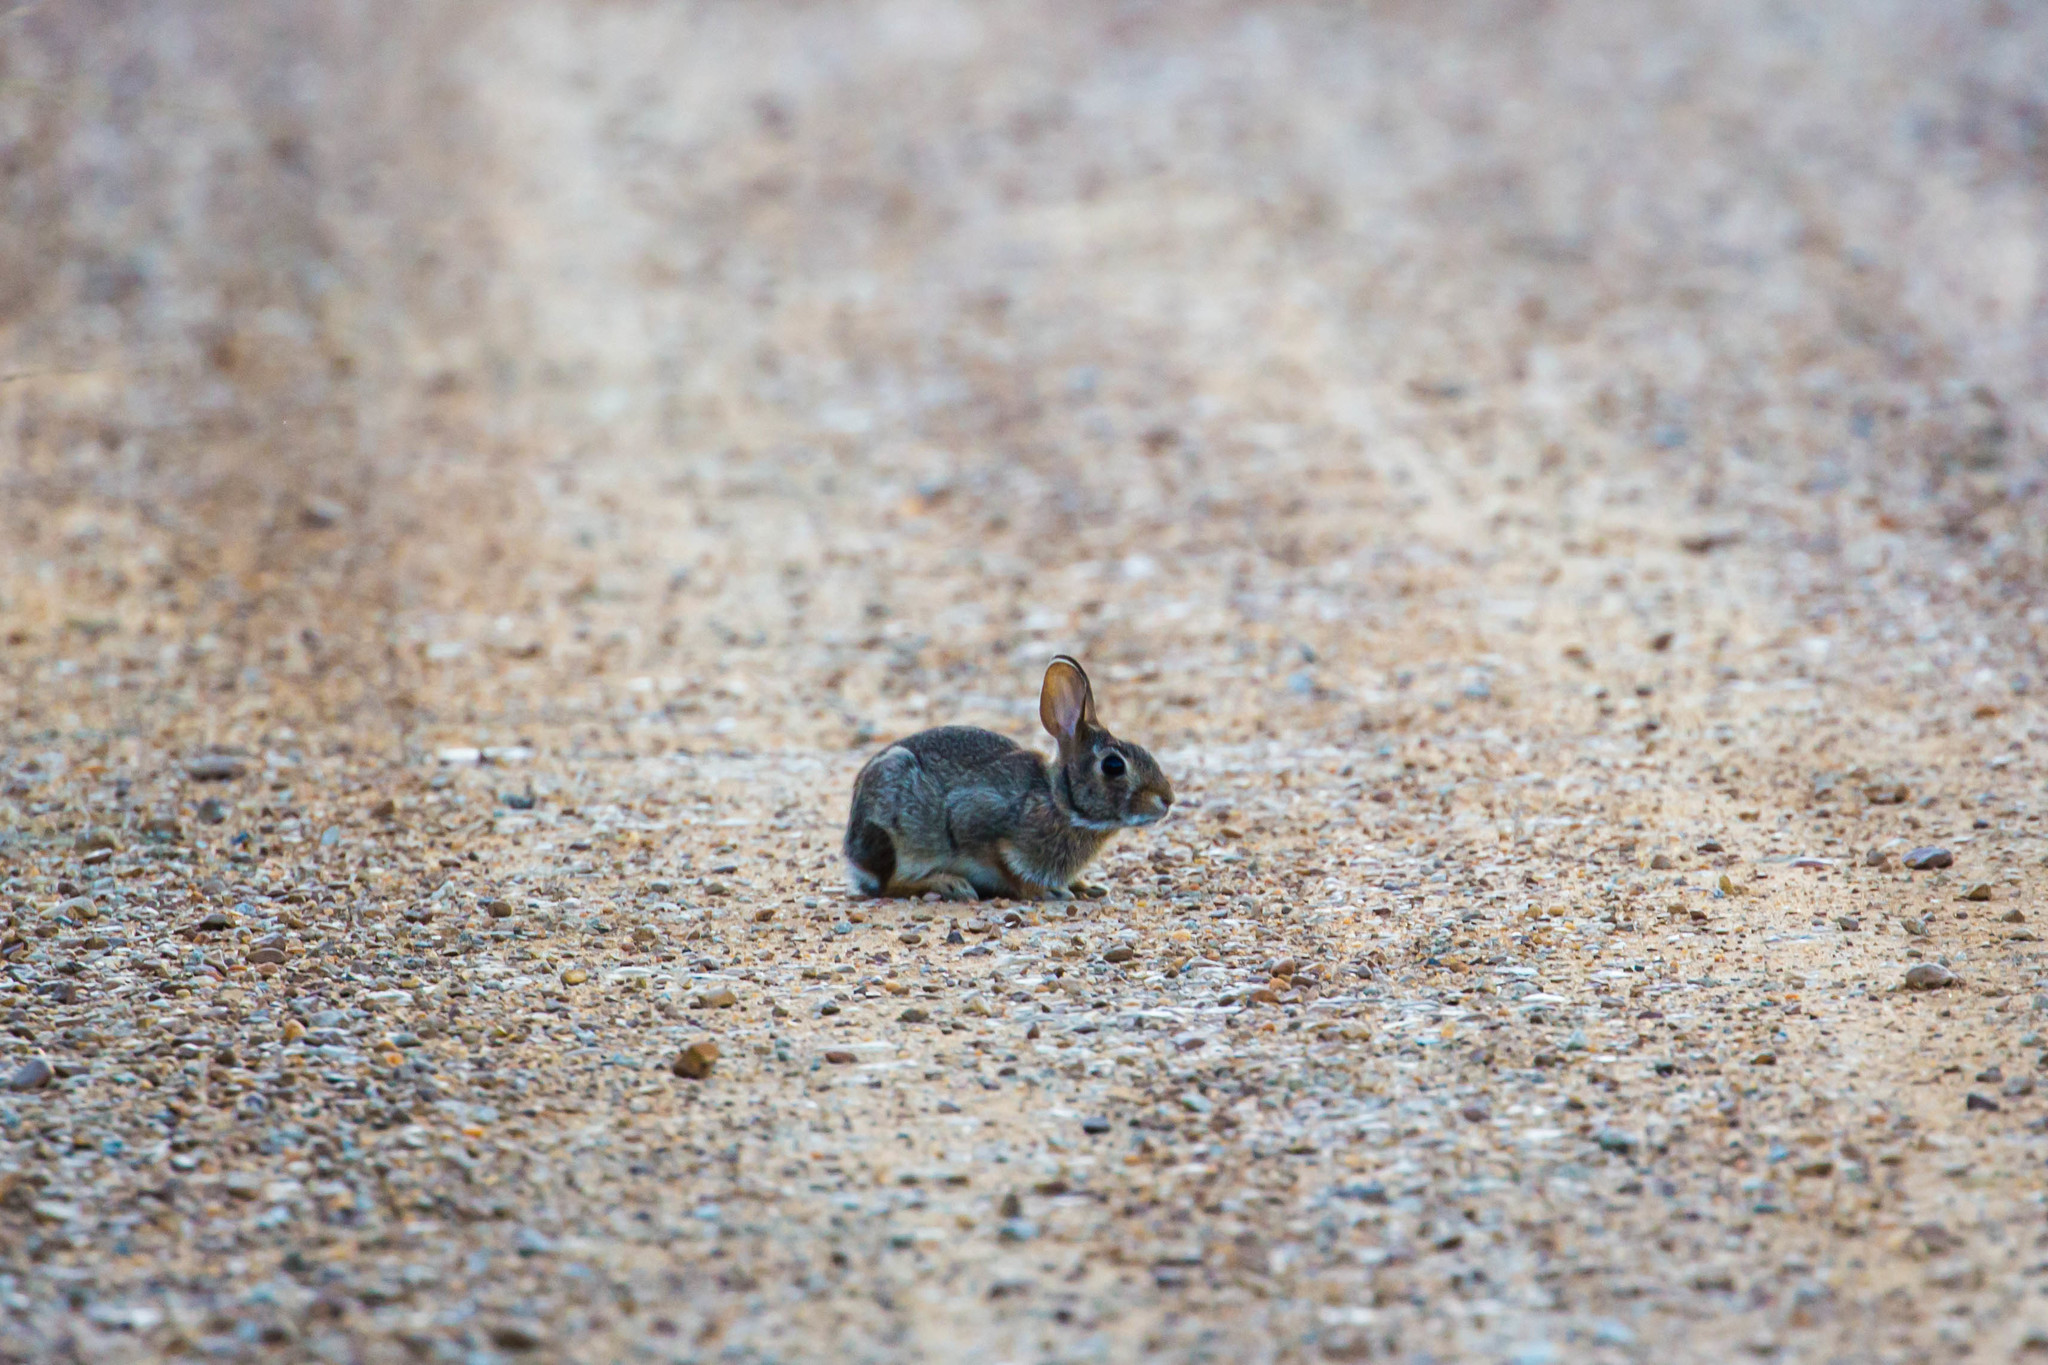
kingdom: Animalia
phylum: Chordata
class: Mammalia
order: Lagomorpha
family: Leporidae
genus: Sylvilagus
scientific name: Sylvilagus floridanus
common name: Eastern cottontail
